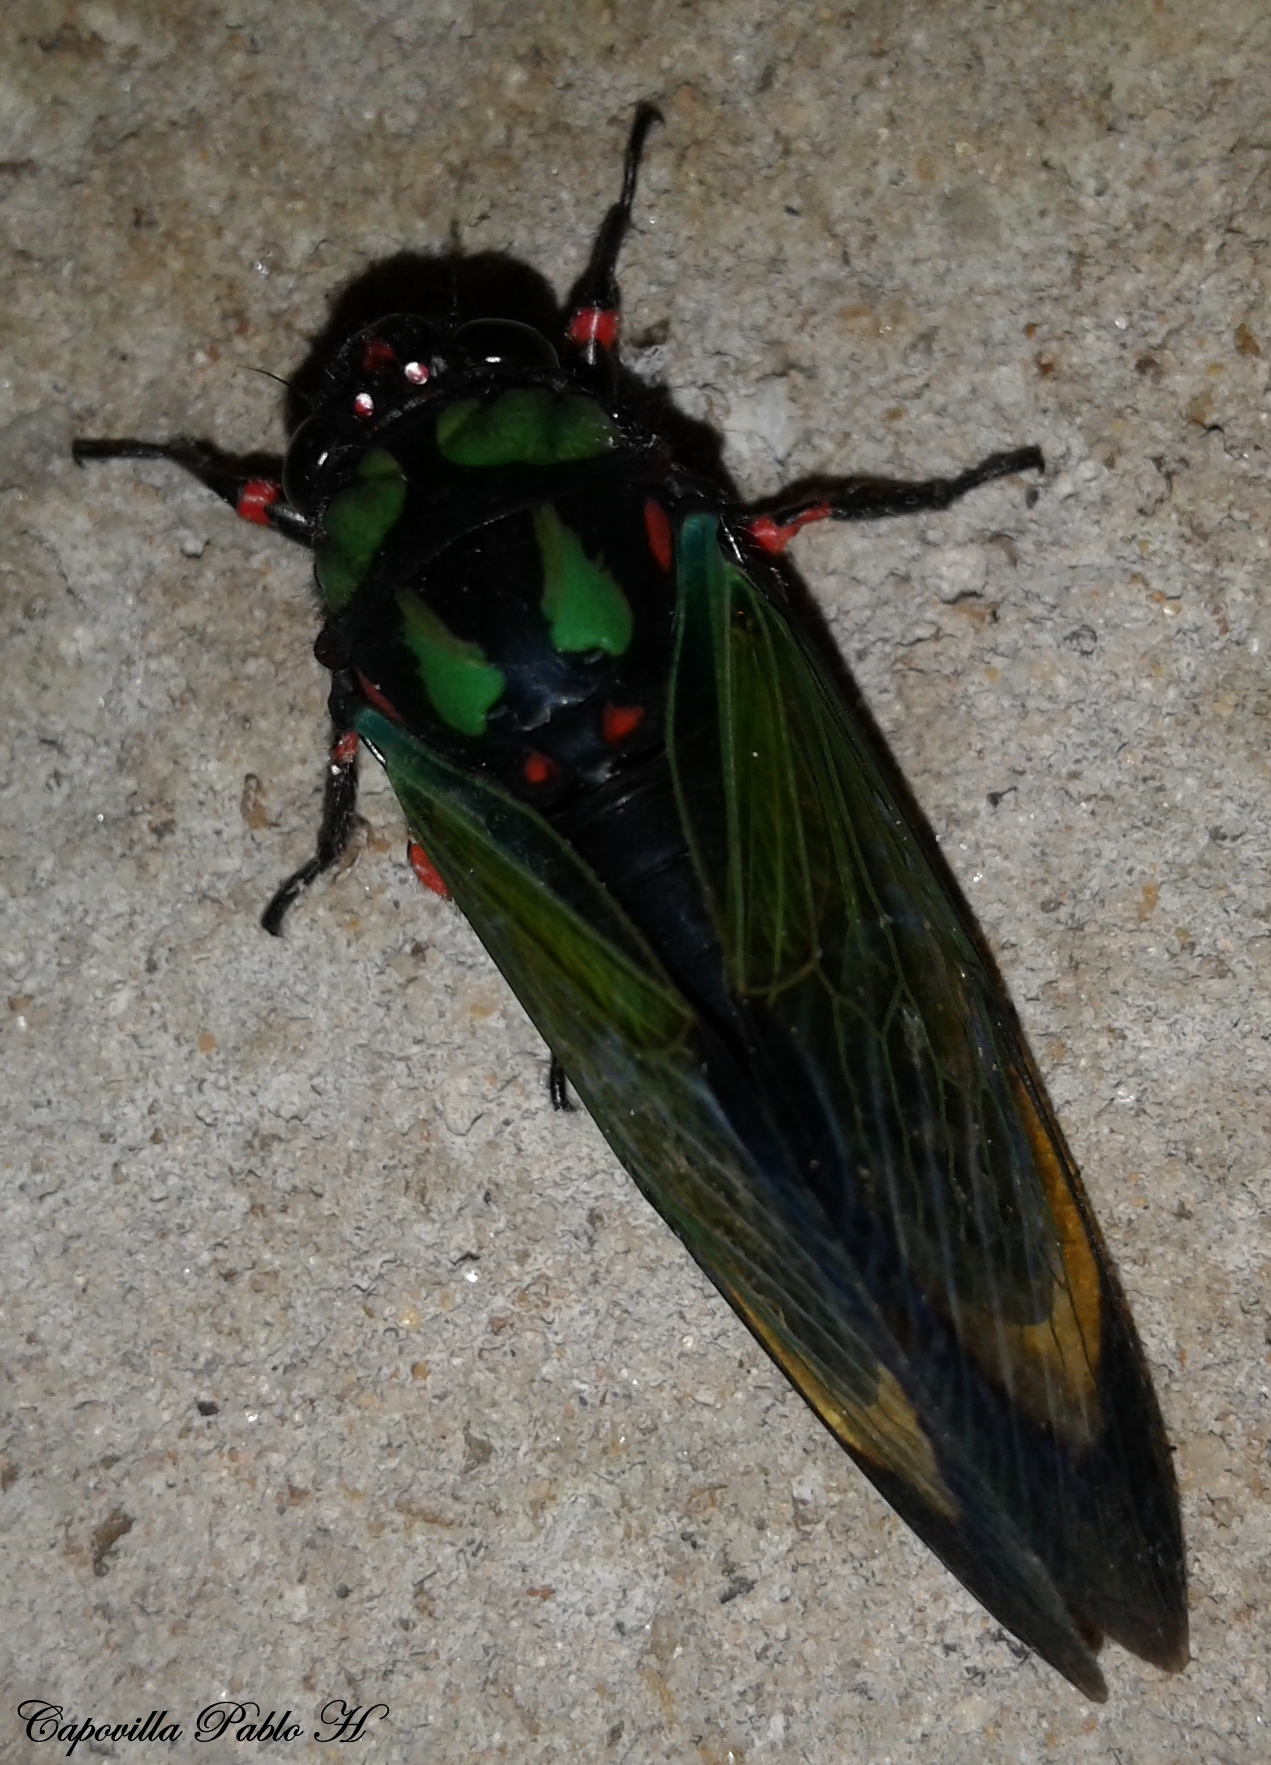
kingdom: Animalia
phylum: Arthropoda
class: Insecta
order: Hemiptera
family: Cicadidae
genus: Carineta
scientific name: Carineta diardi
